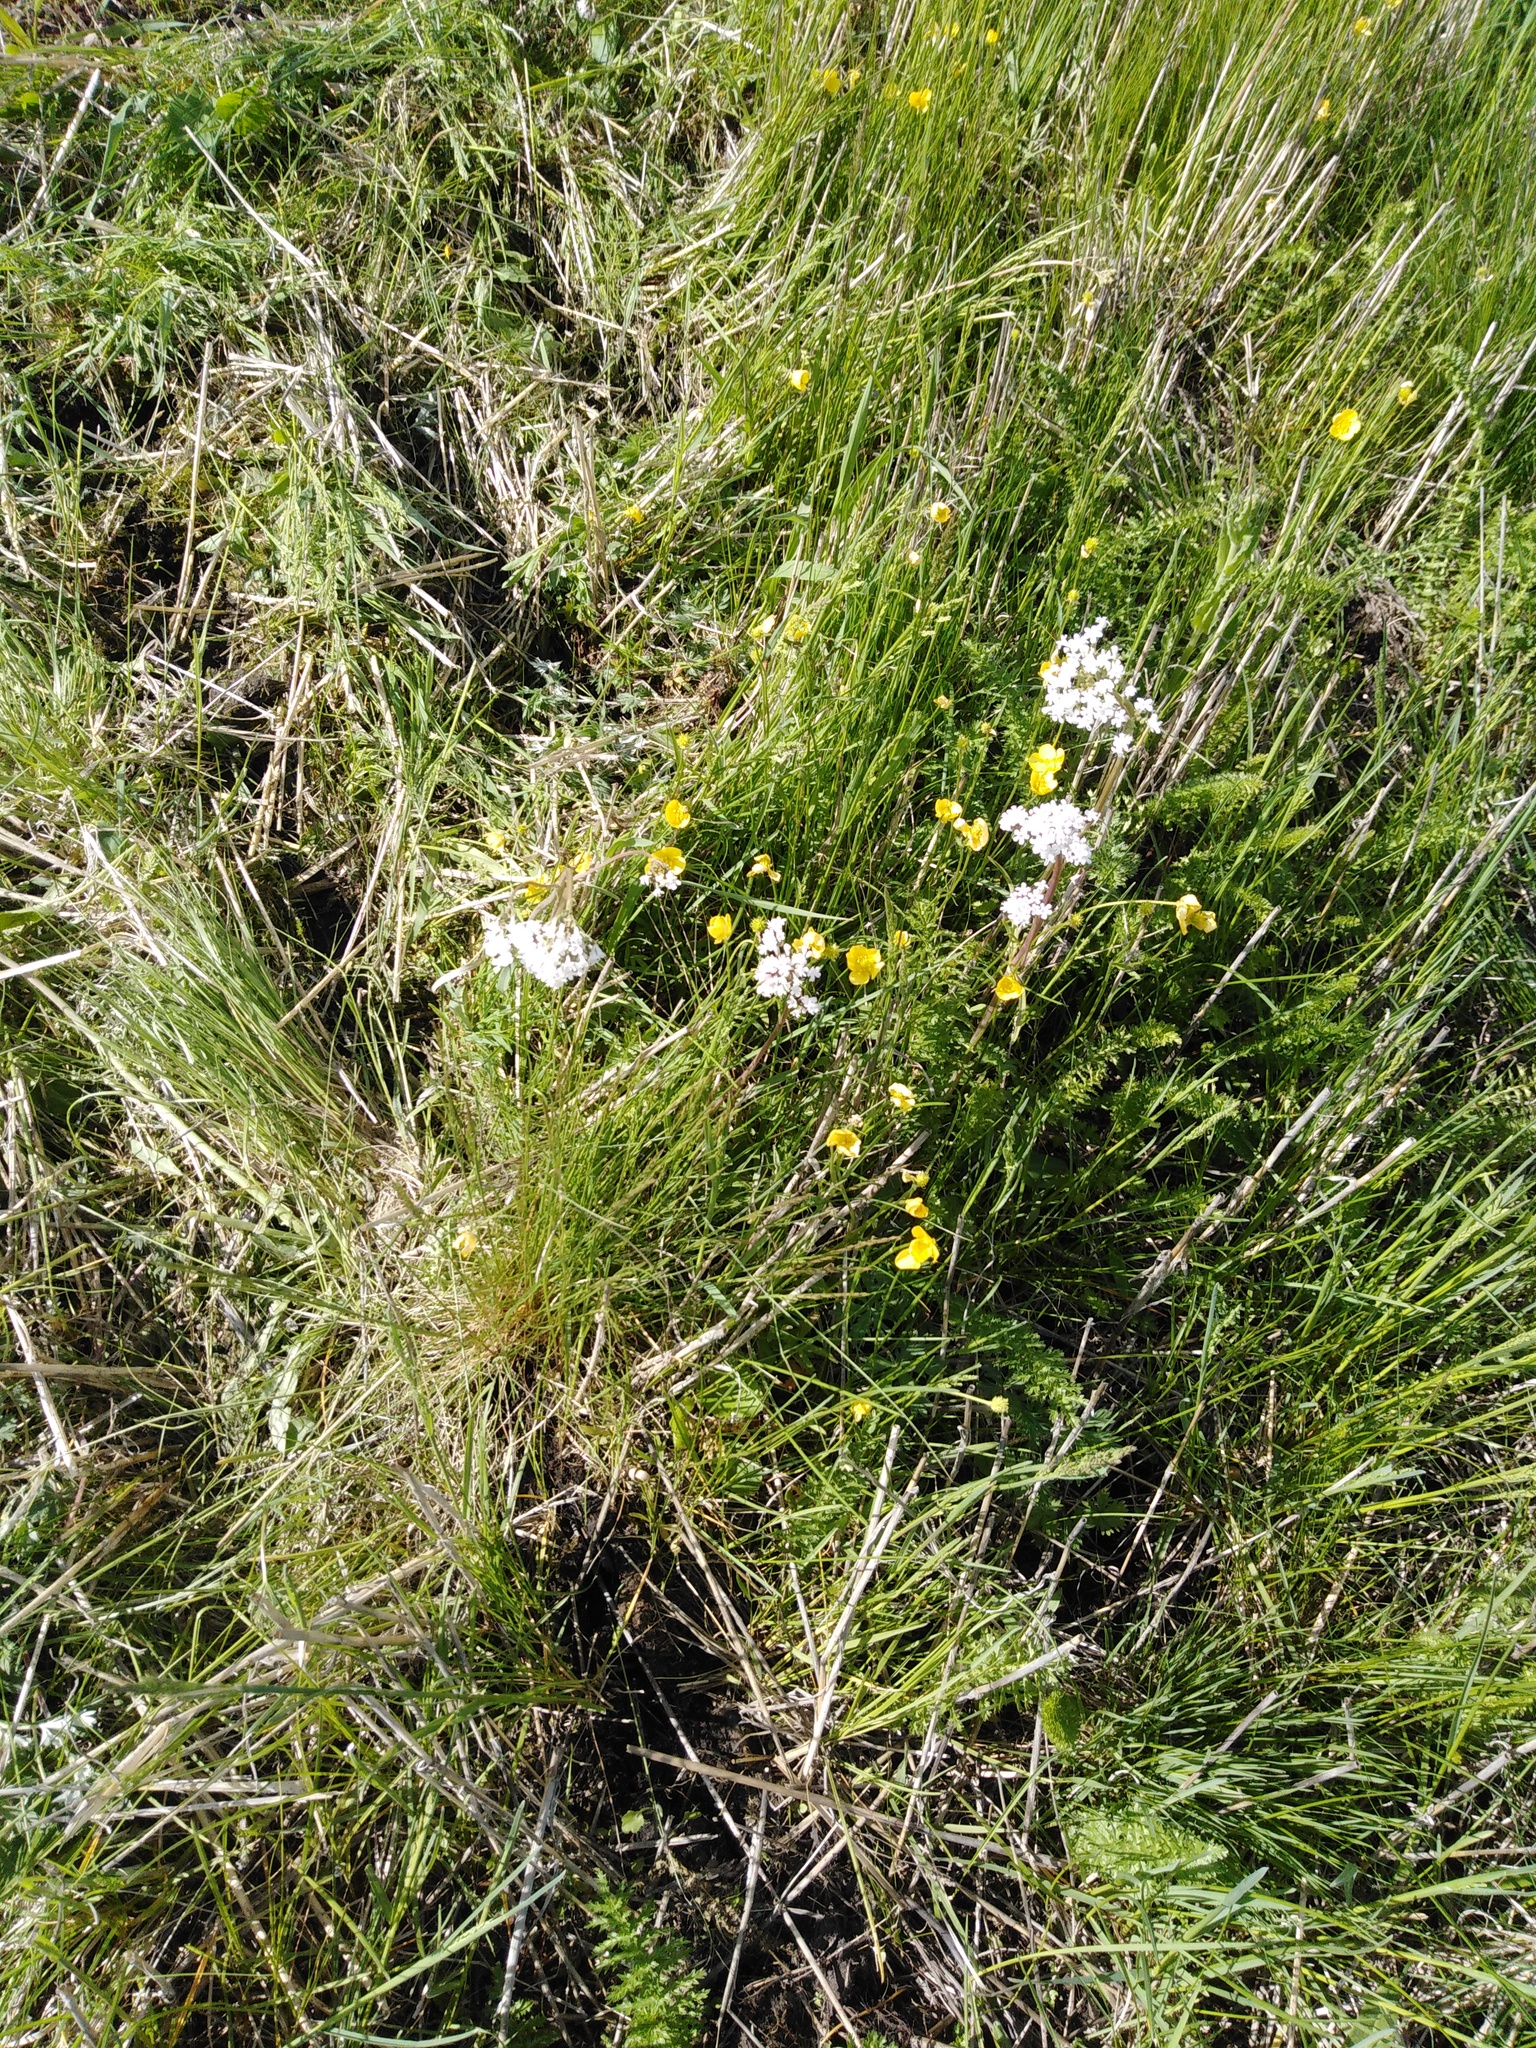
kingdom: Plantae
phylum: Tracheophyta
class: Magnoliopsida
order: Dipsacales
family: Caprifoliaceae
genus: Valeriana
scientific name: Valeriana tuberosa
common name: Tuberous valerian
